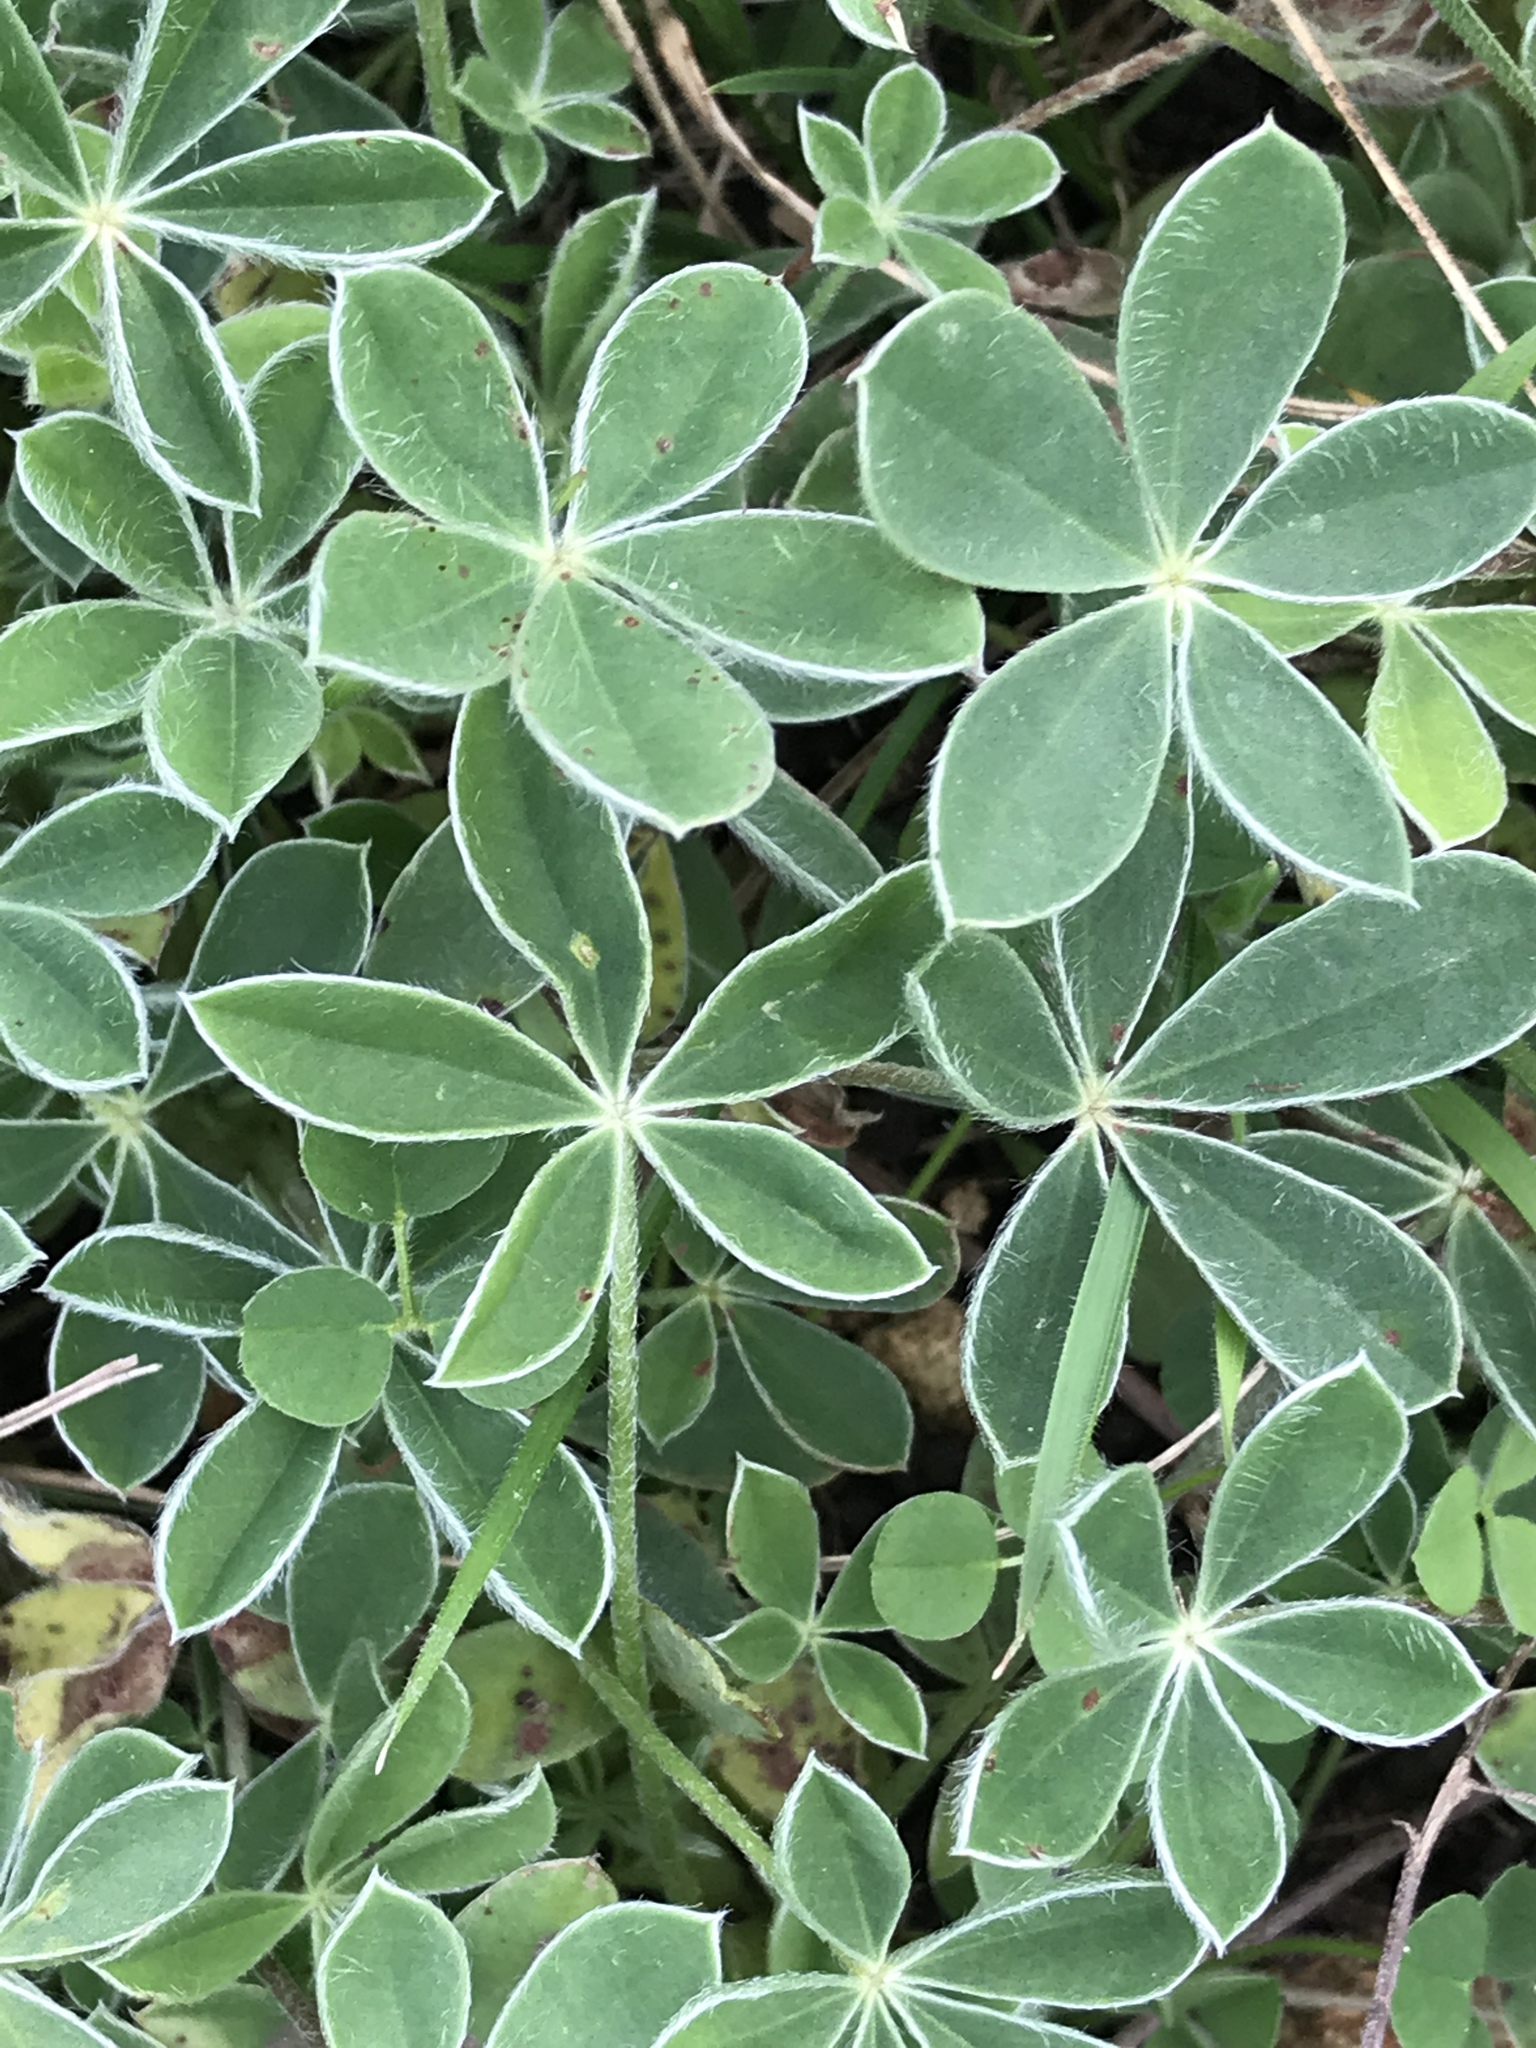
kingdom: Plantae
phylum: Tracheophyta
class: Magnoliopsida
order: Fabales
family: Fabaceae
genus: Lupinus
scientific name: Lupinus texensis
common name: Texas bluebonnet
